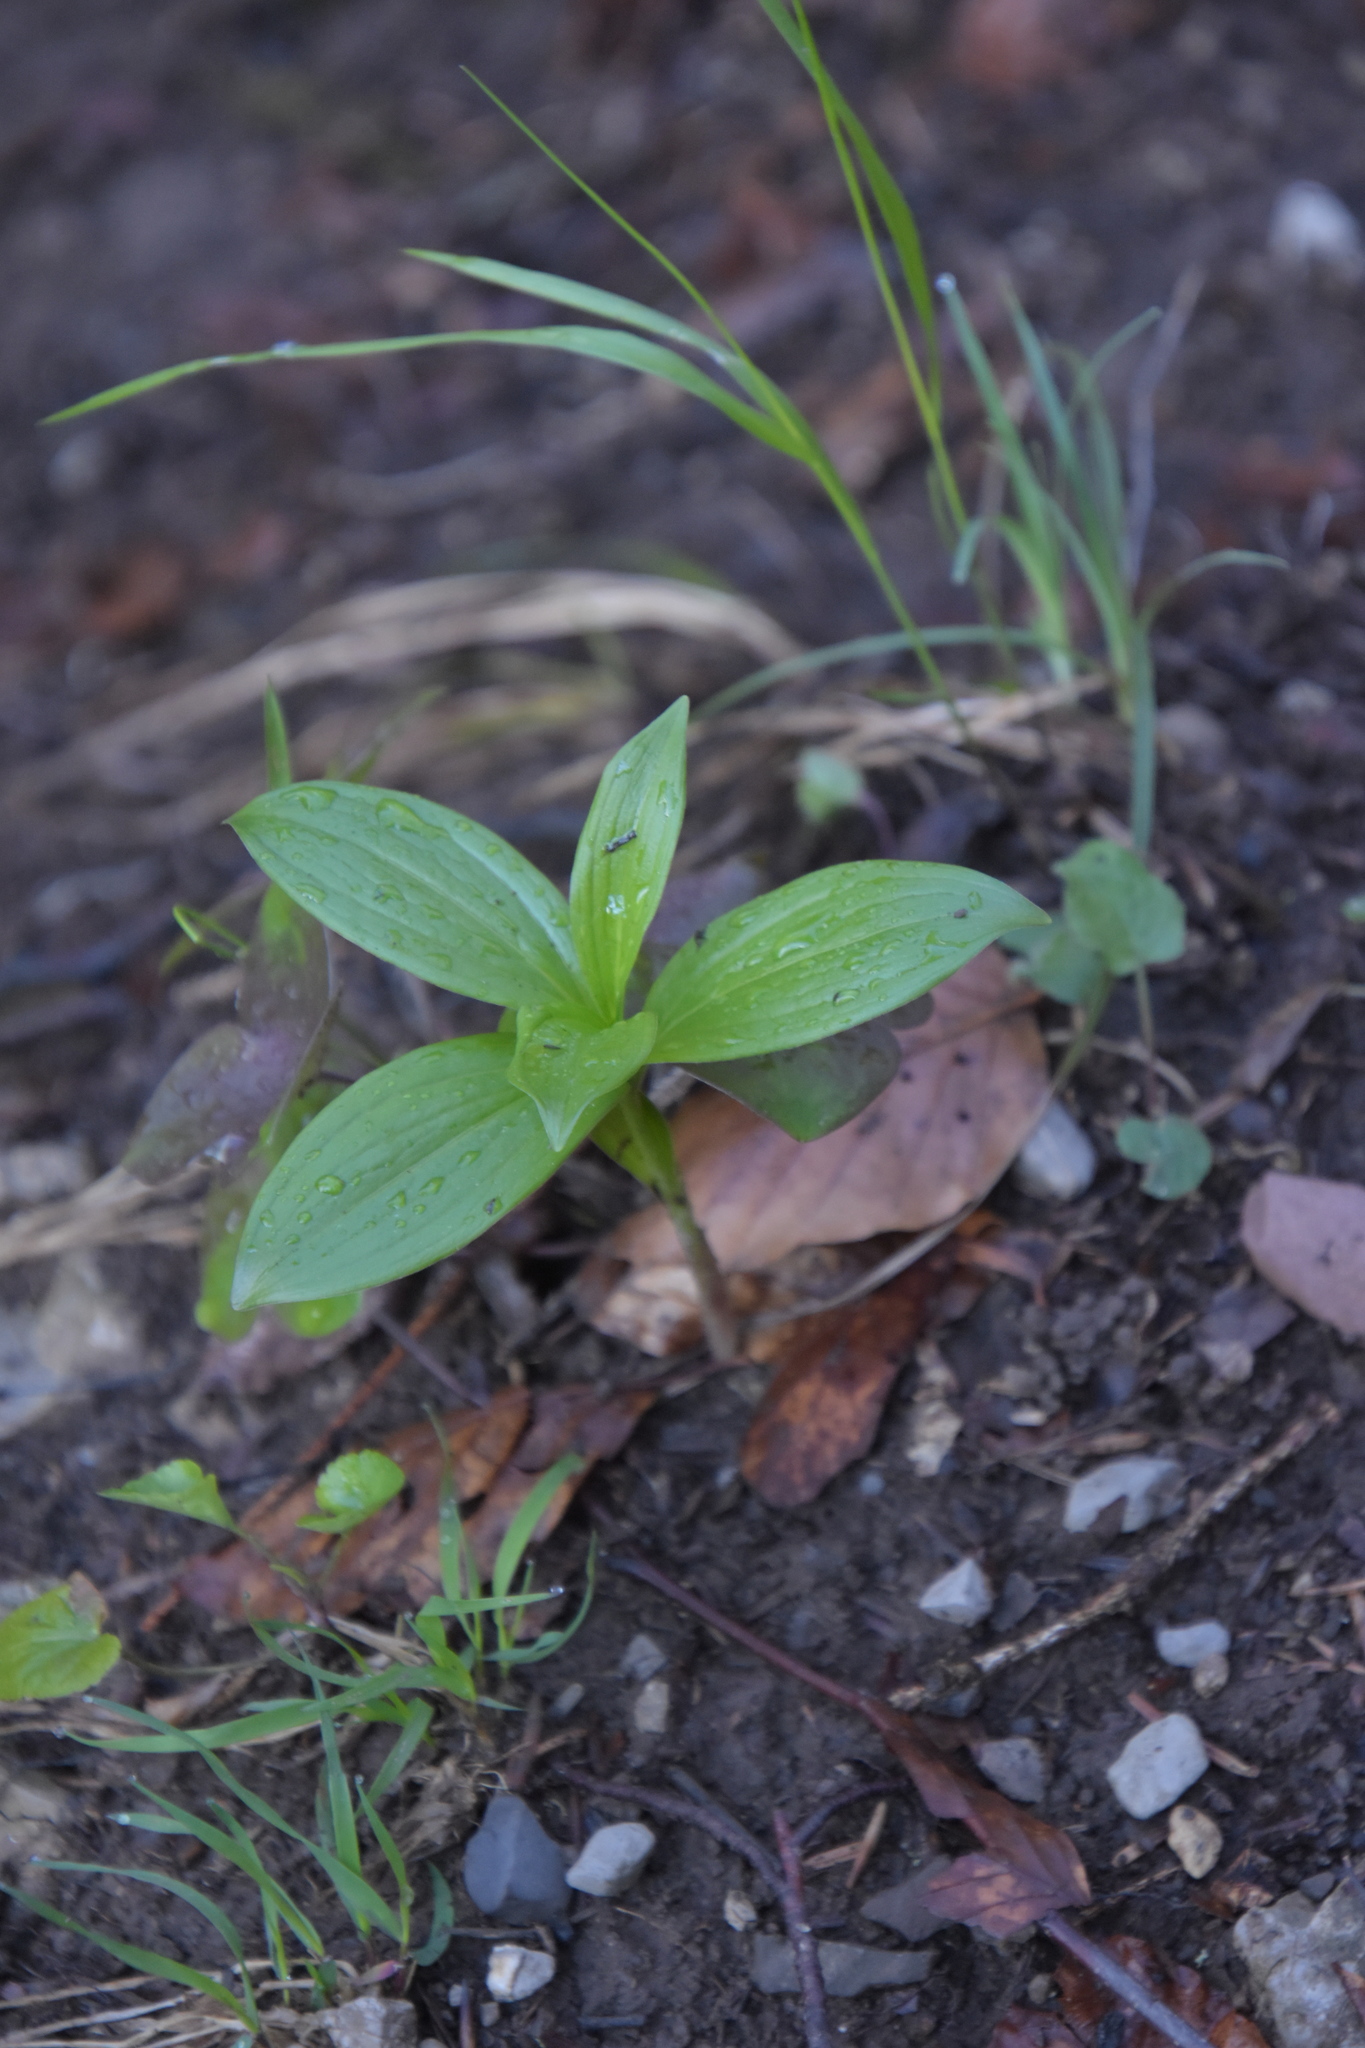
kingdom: Plantae
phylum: Tracheophyta
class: Liliopsida
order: Liliales
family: Liliaceae
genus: Lilium
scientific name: Lilium martagon
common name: Martagon lily
